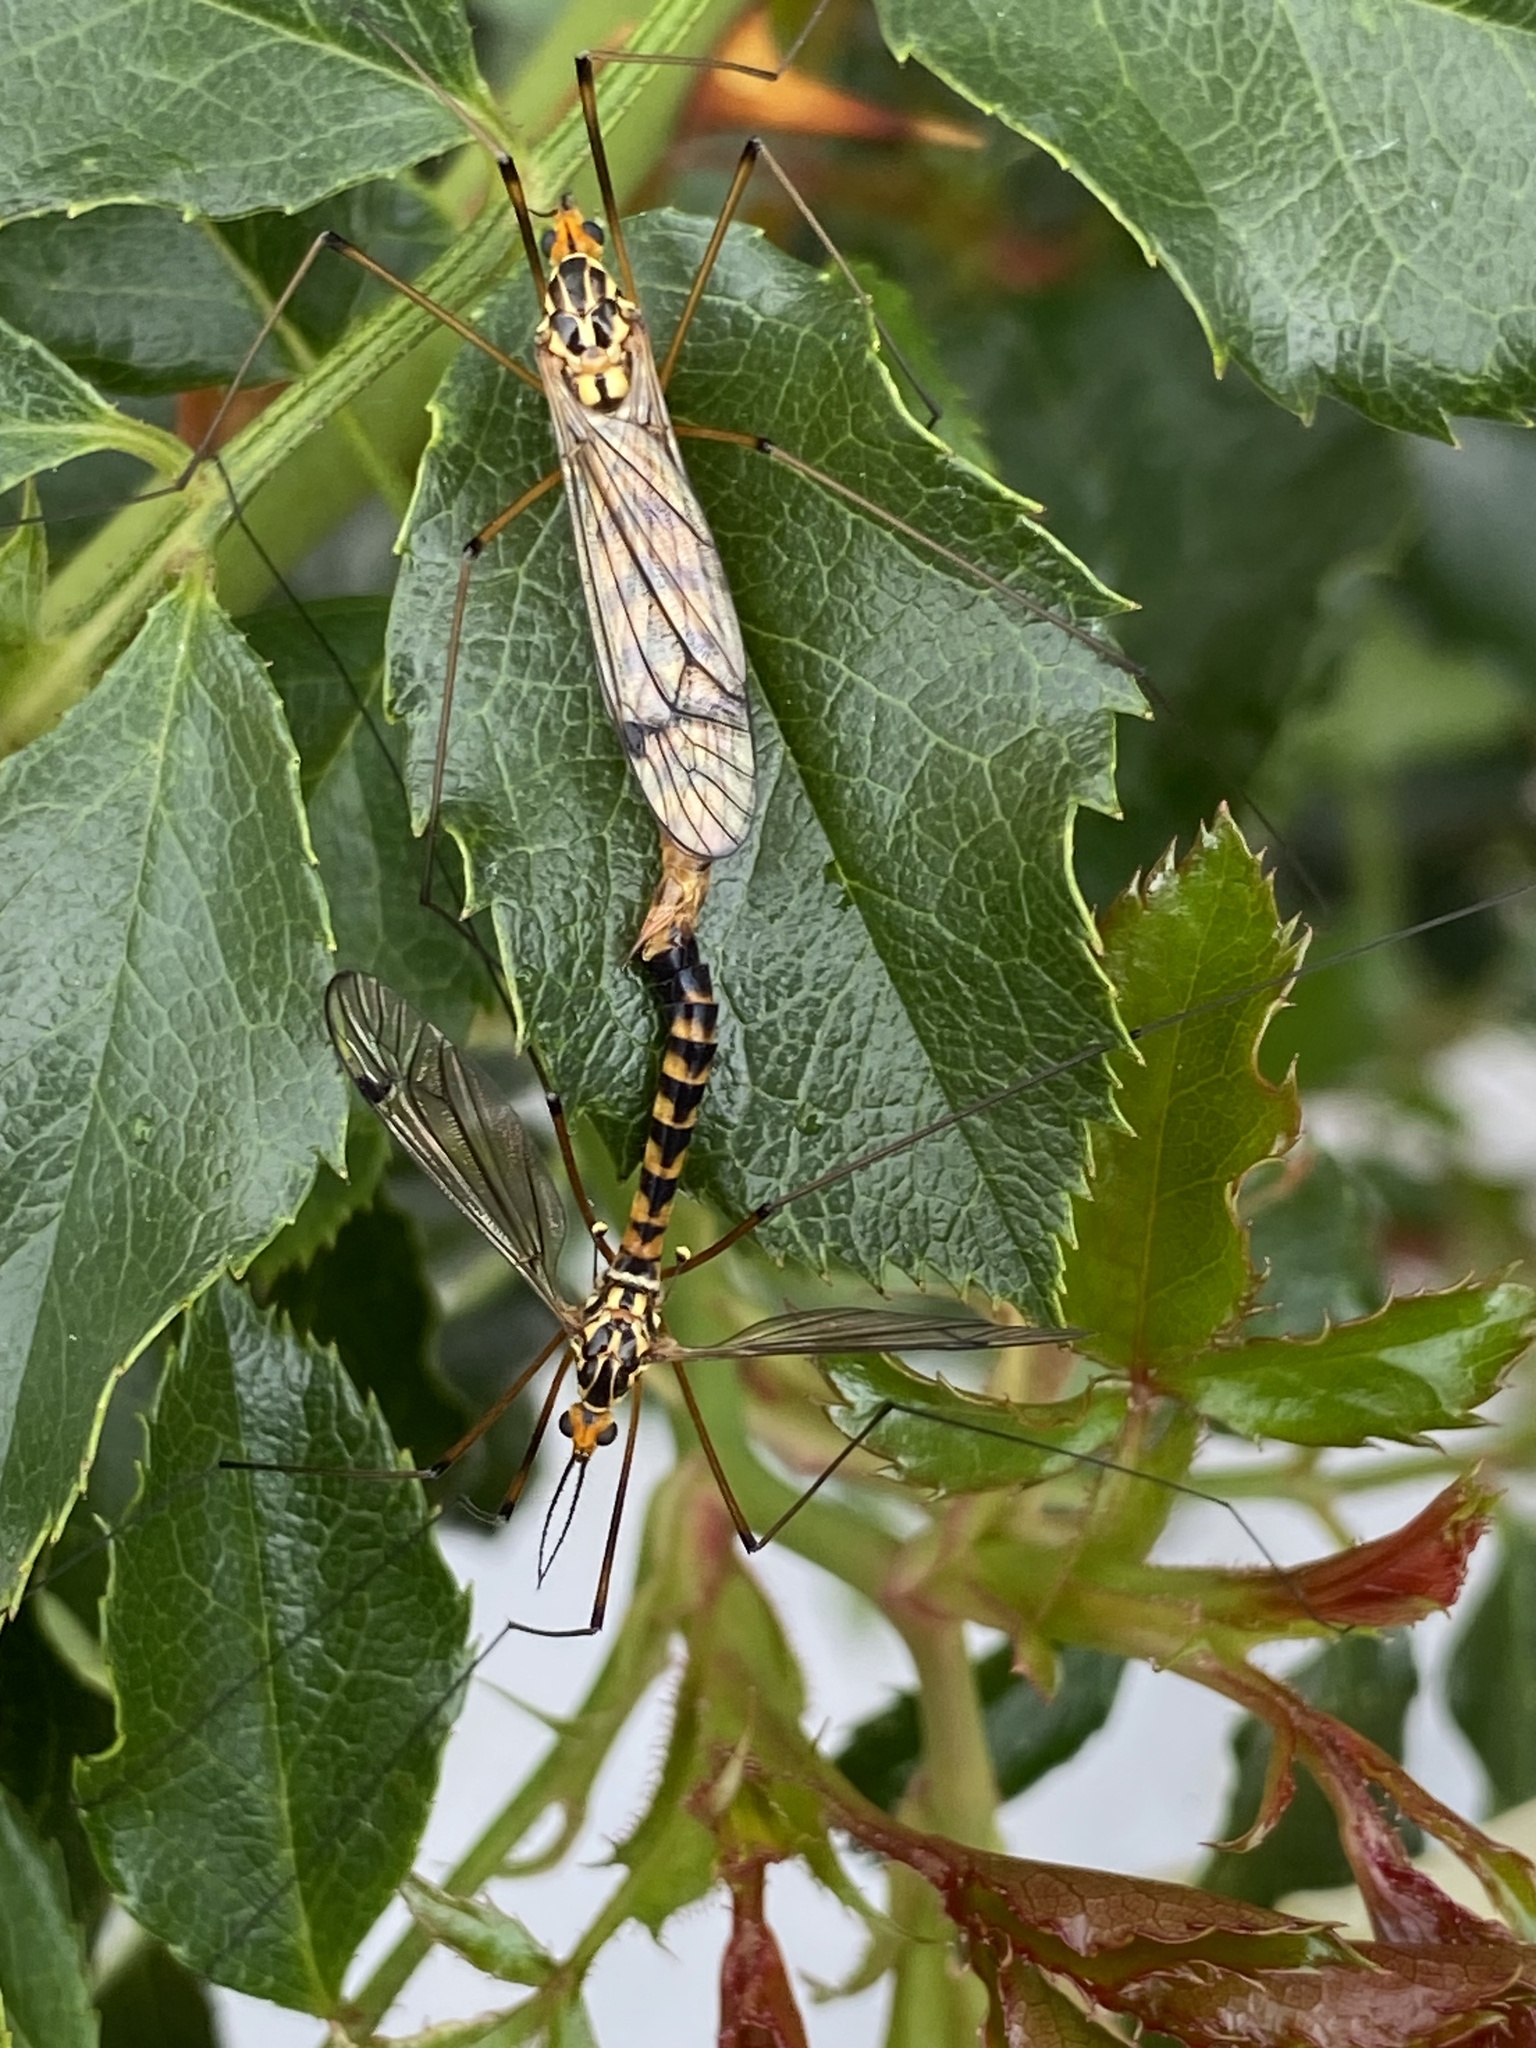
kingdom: Animalia
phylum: Arthropoda
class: Insecta
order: Diptera
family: Tipulidae
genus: Nephrotoma
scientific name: Nephrotoma scalaris
